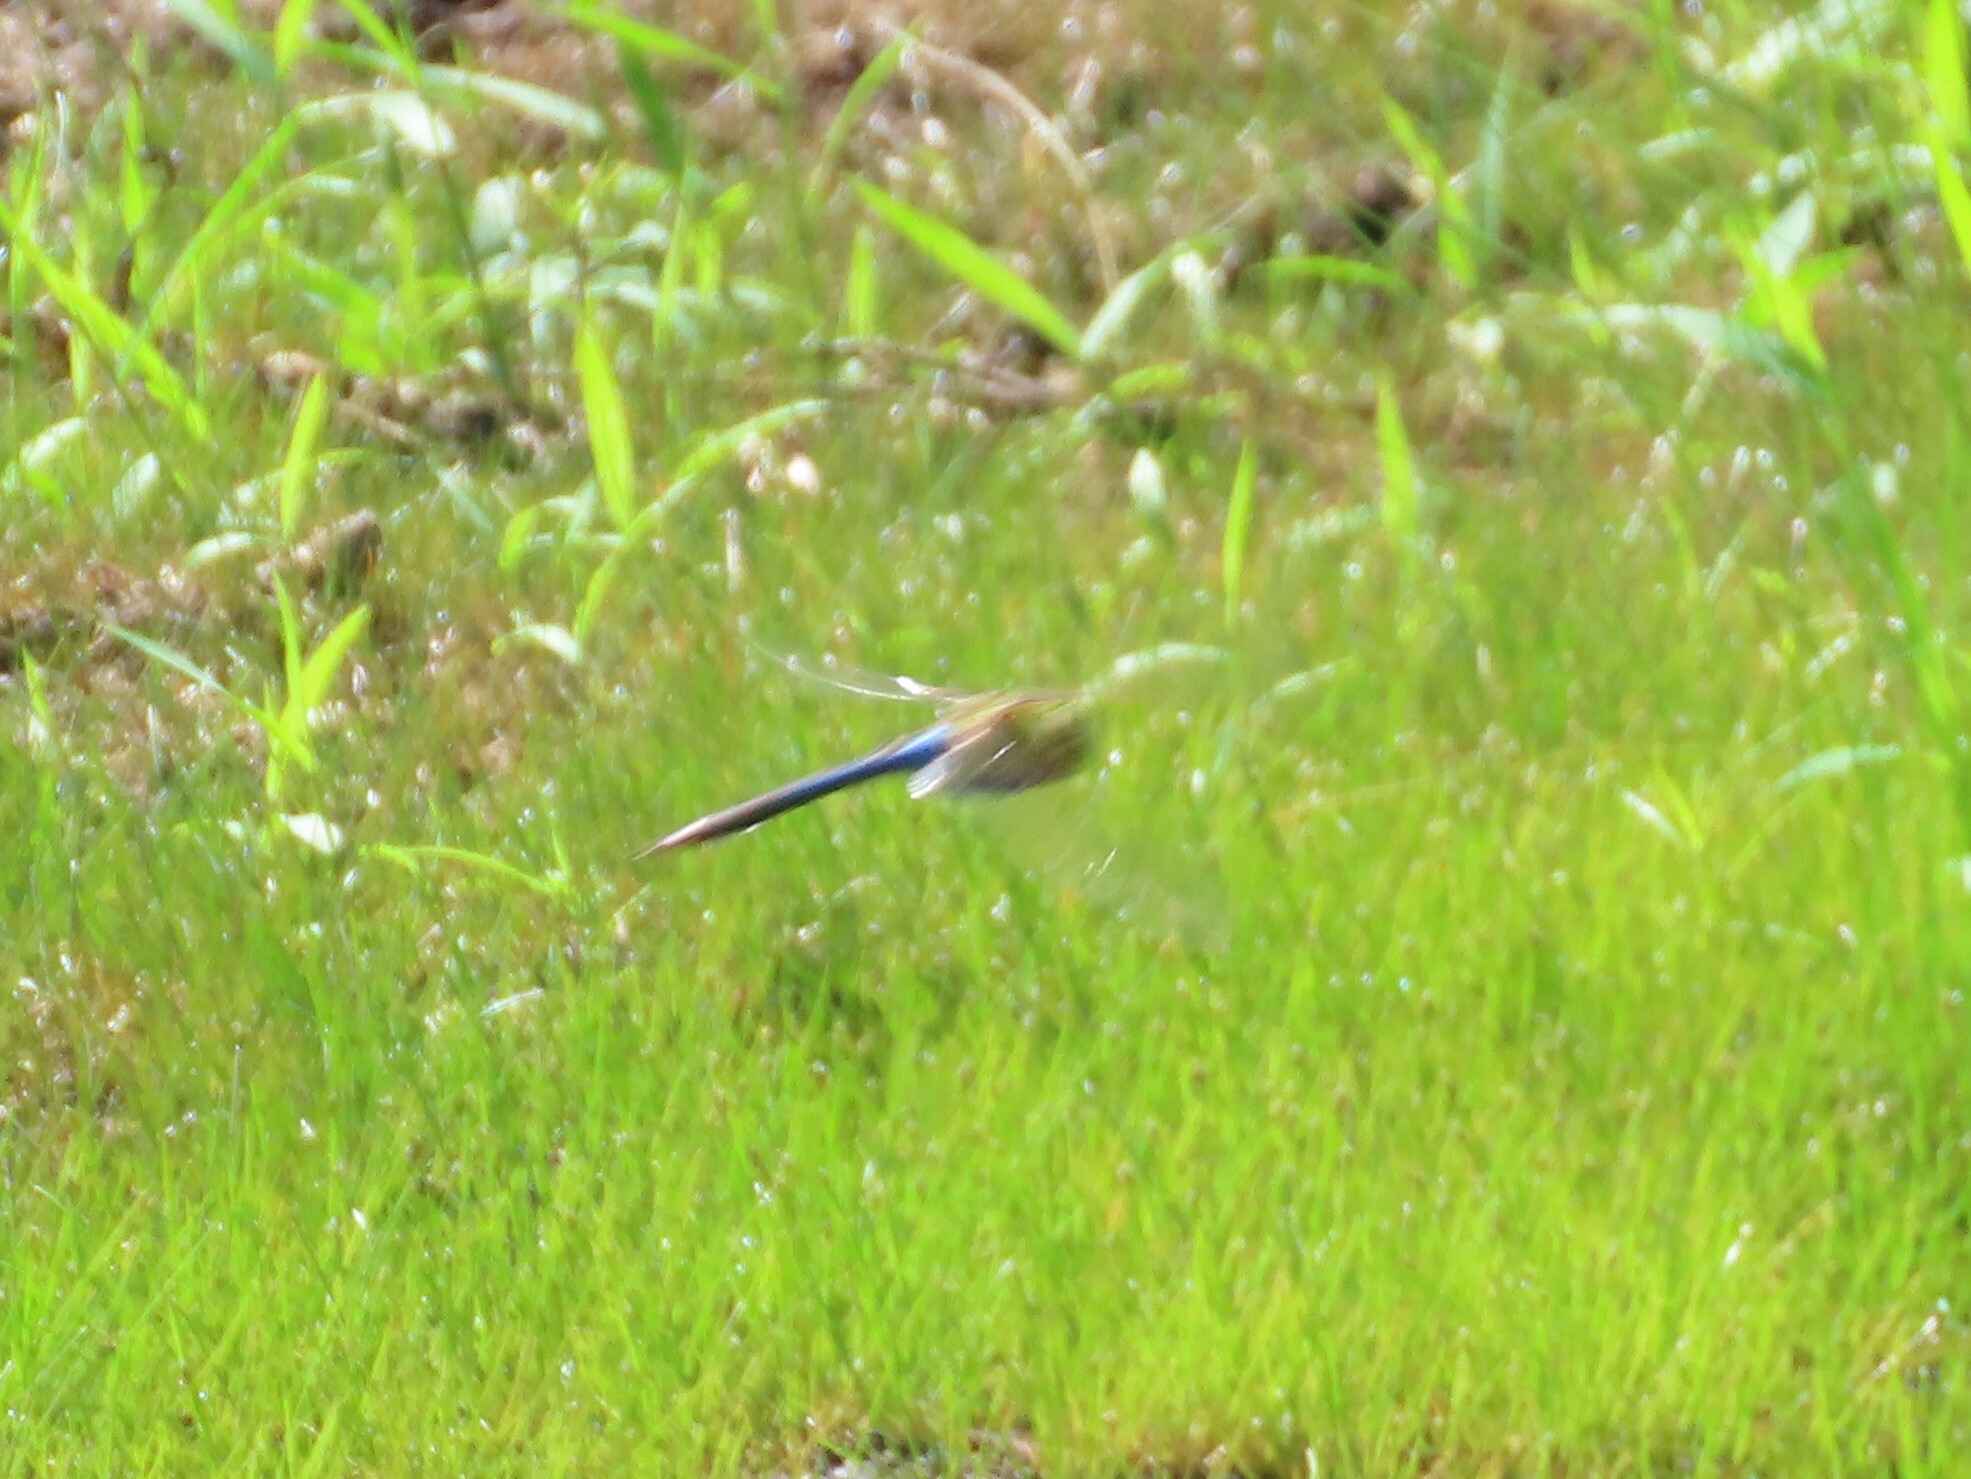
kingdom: Animalia
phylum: Arthropoda
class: Insecta
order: Odonata
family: Aeshnidae
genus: Anax
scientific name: Anax junius
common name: Common green darner
